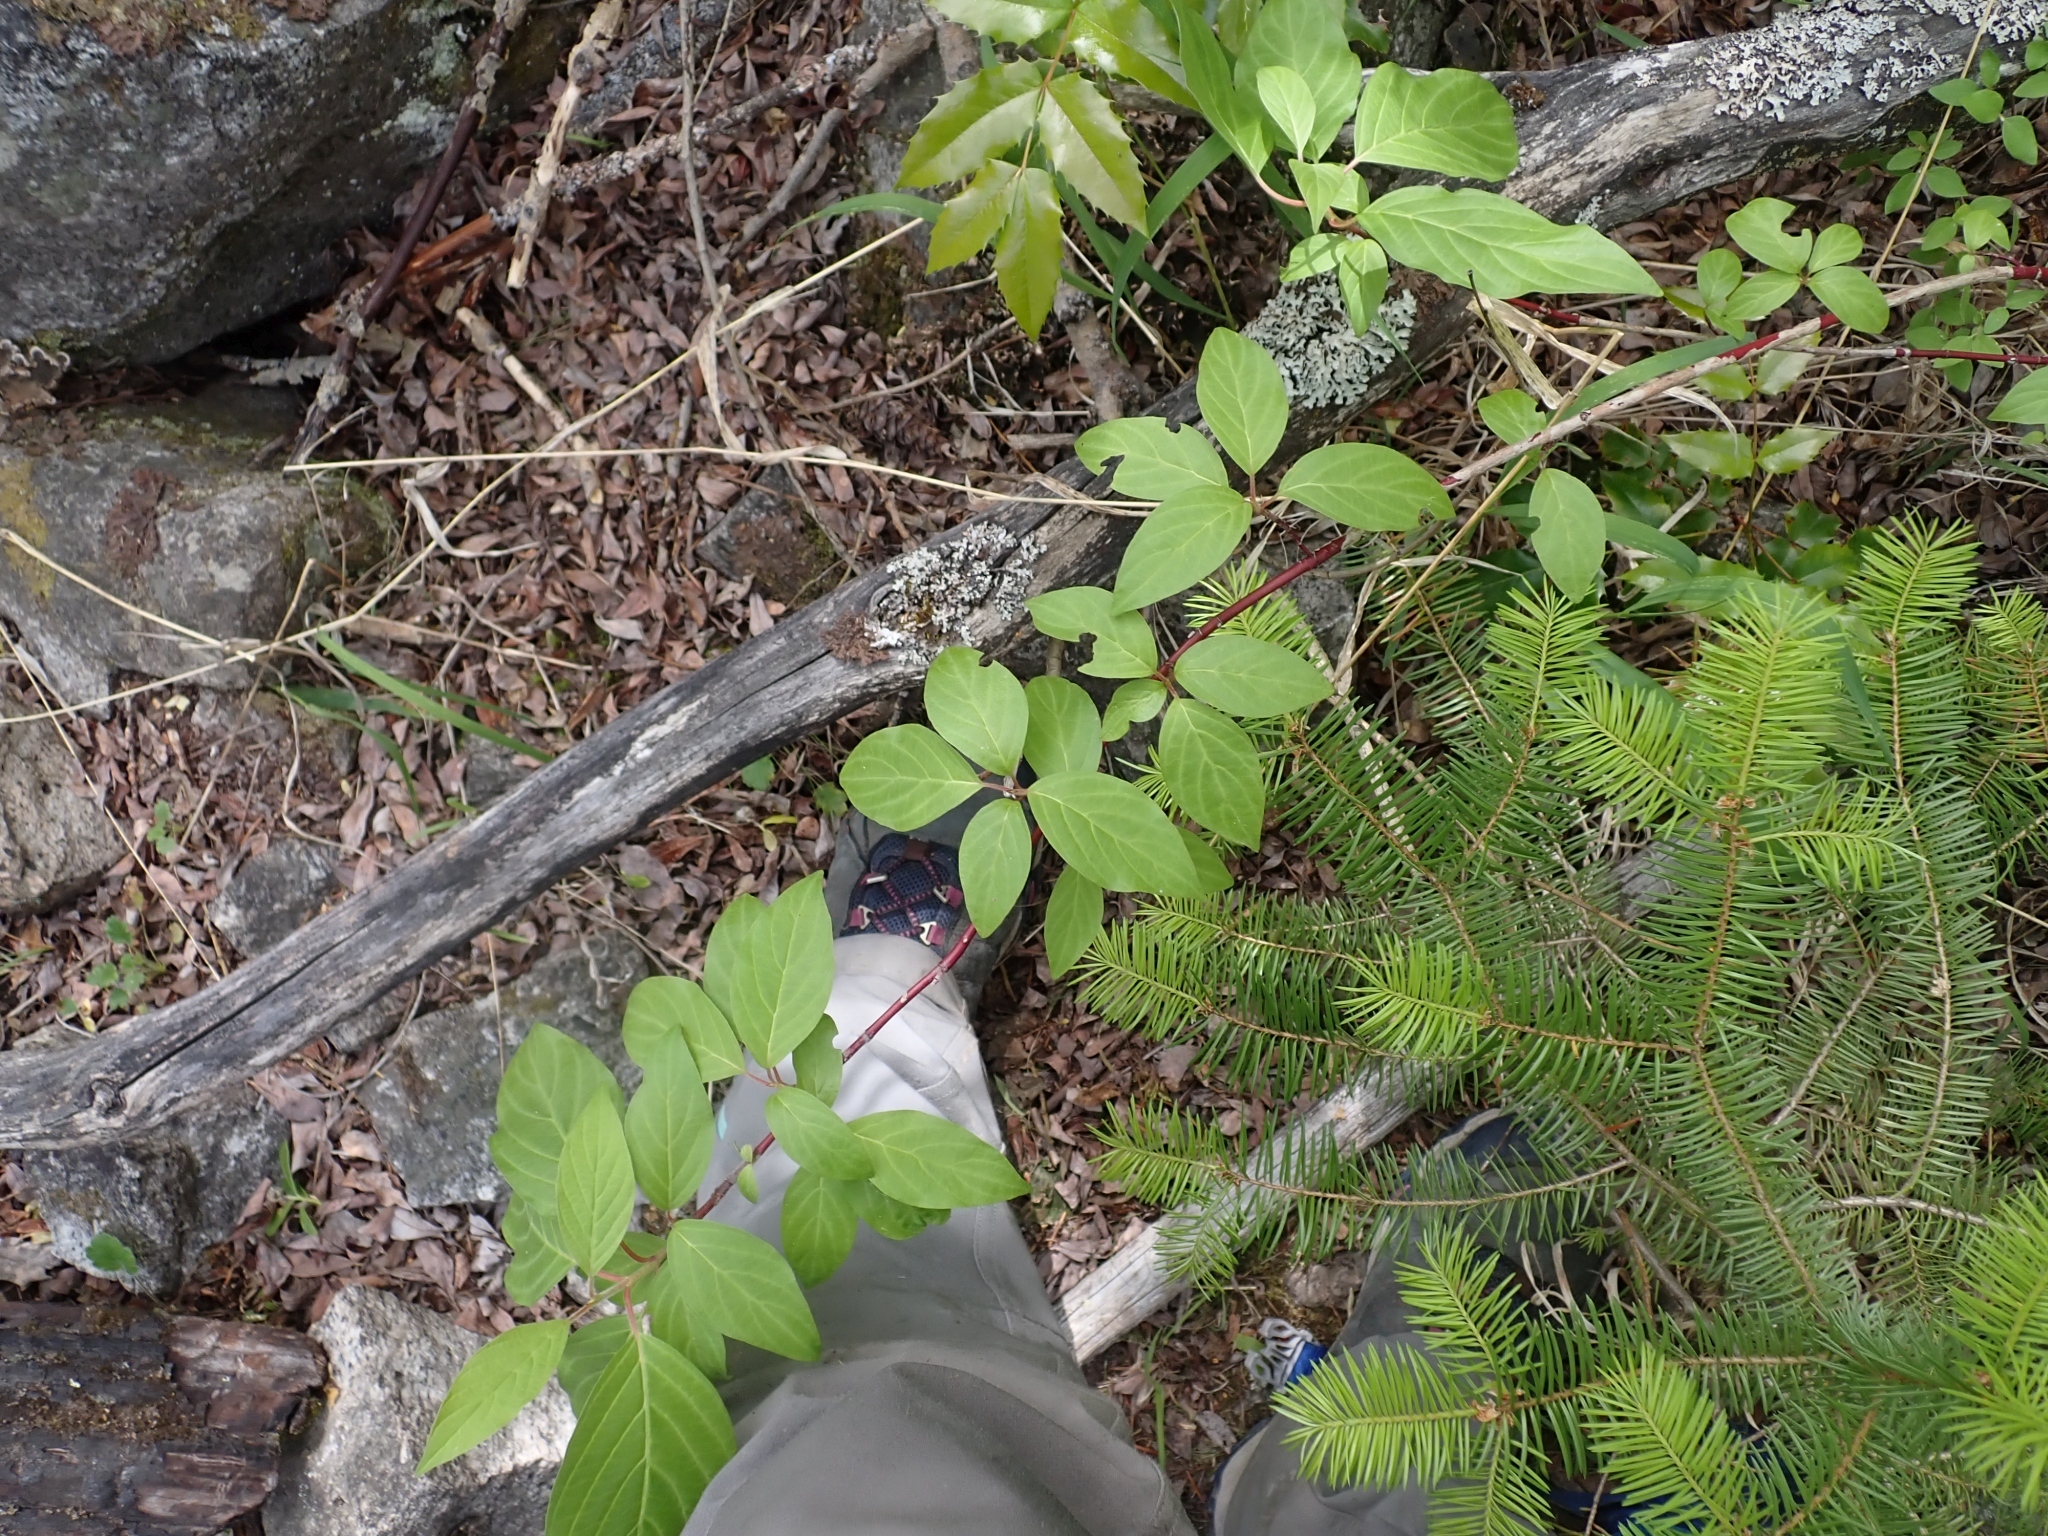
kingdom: Plantae
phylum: Tracheophyta
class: Magnoliopsida
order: Cornales
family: Cornaceae
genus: Cornus
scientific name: Cornus sericea
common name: Red-osier dogwood
